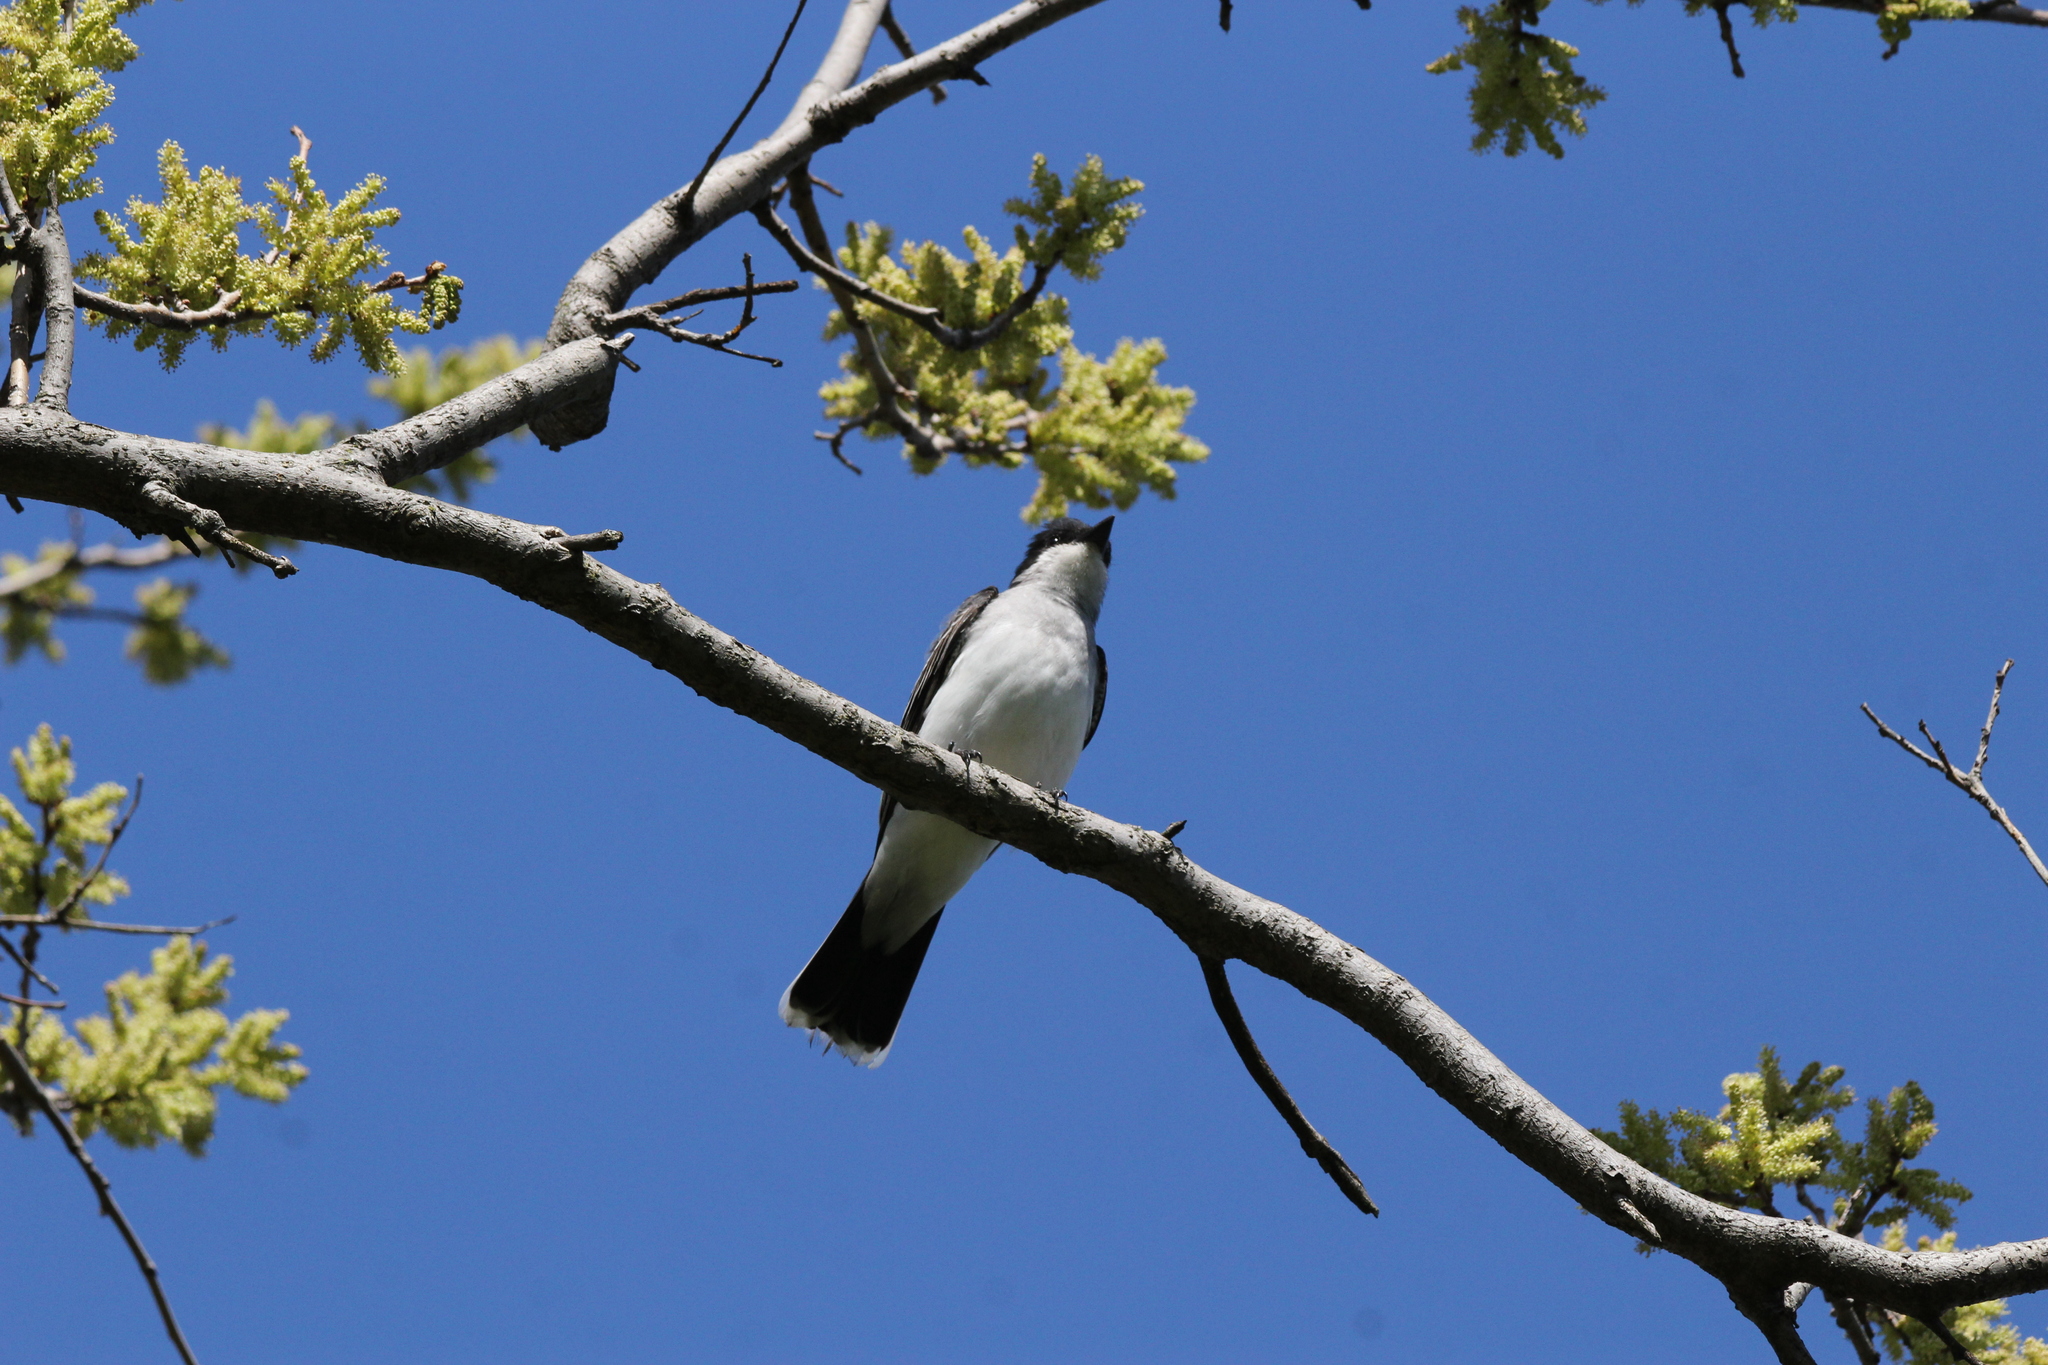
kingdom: Animalia
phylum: Chordata
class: Aves
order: Passeriformes
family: Tyrannidae
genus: Tyrannus
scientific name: Tyrannus tyrannus
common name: Eastern kingbird
